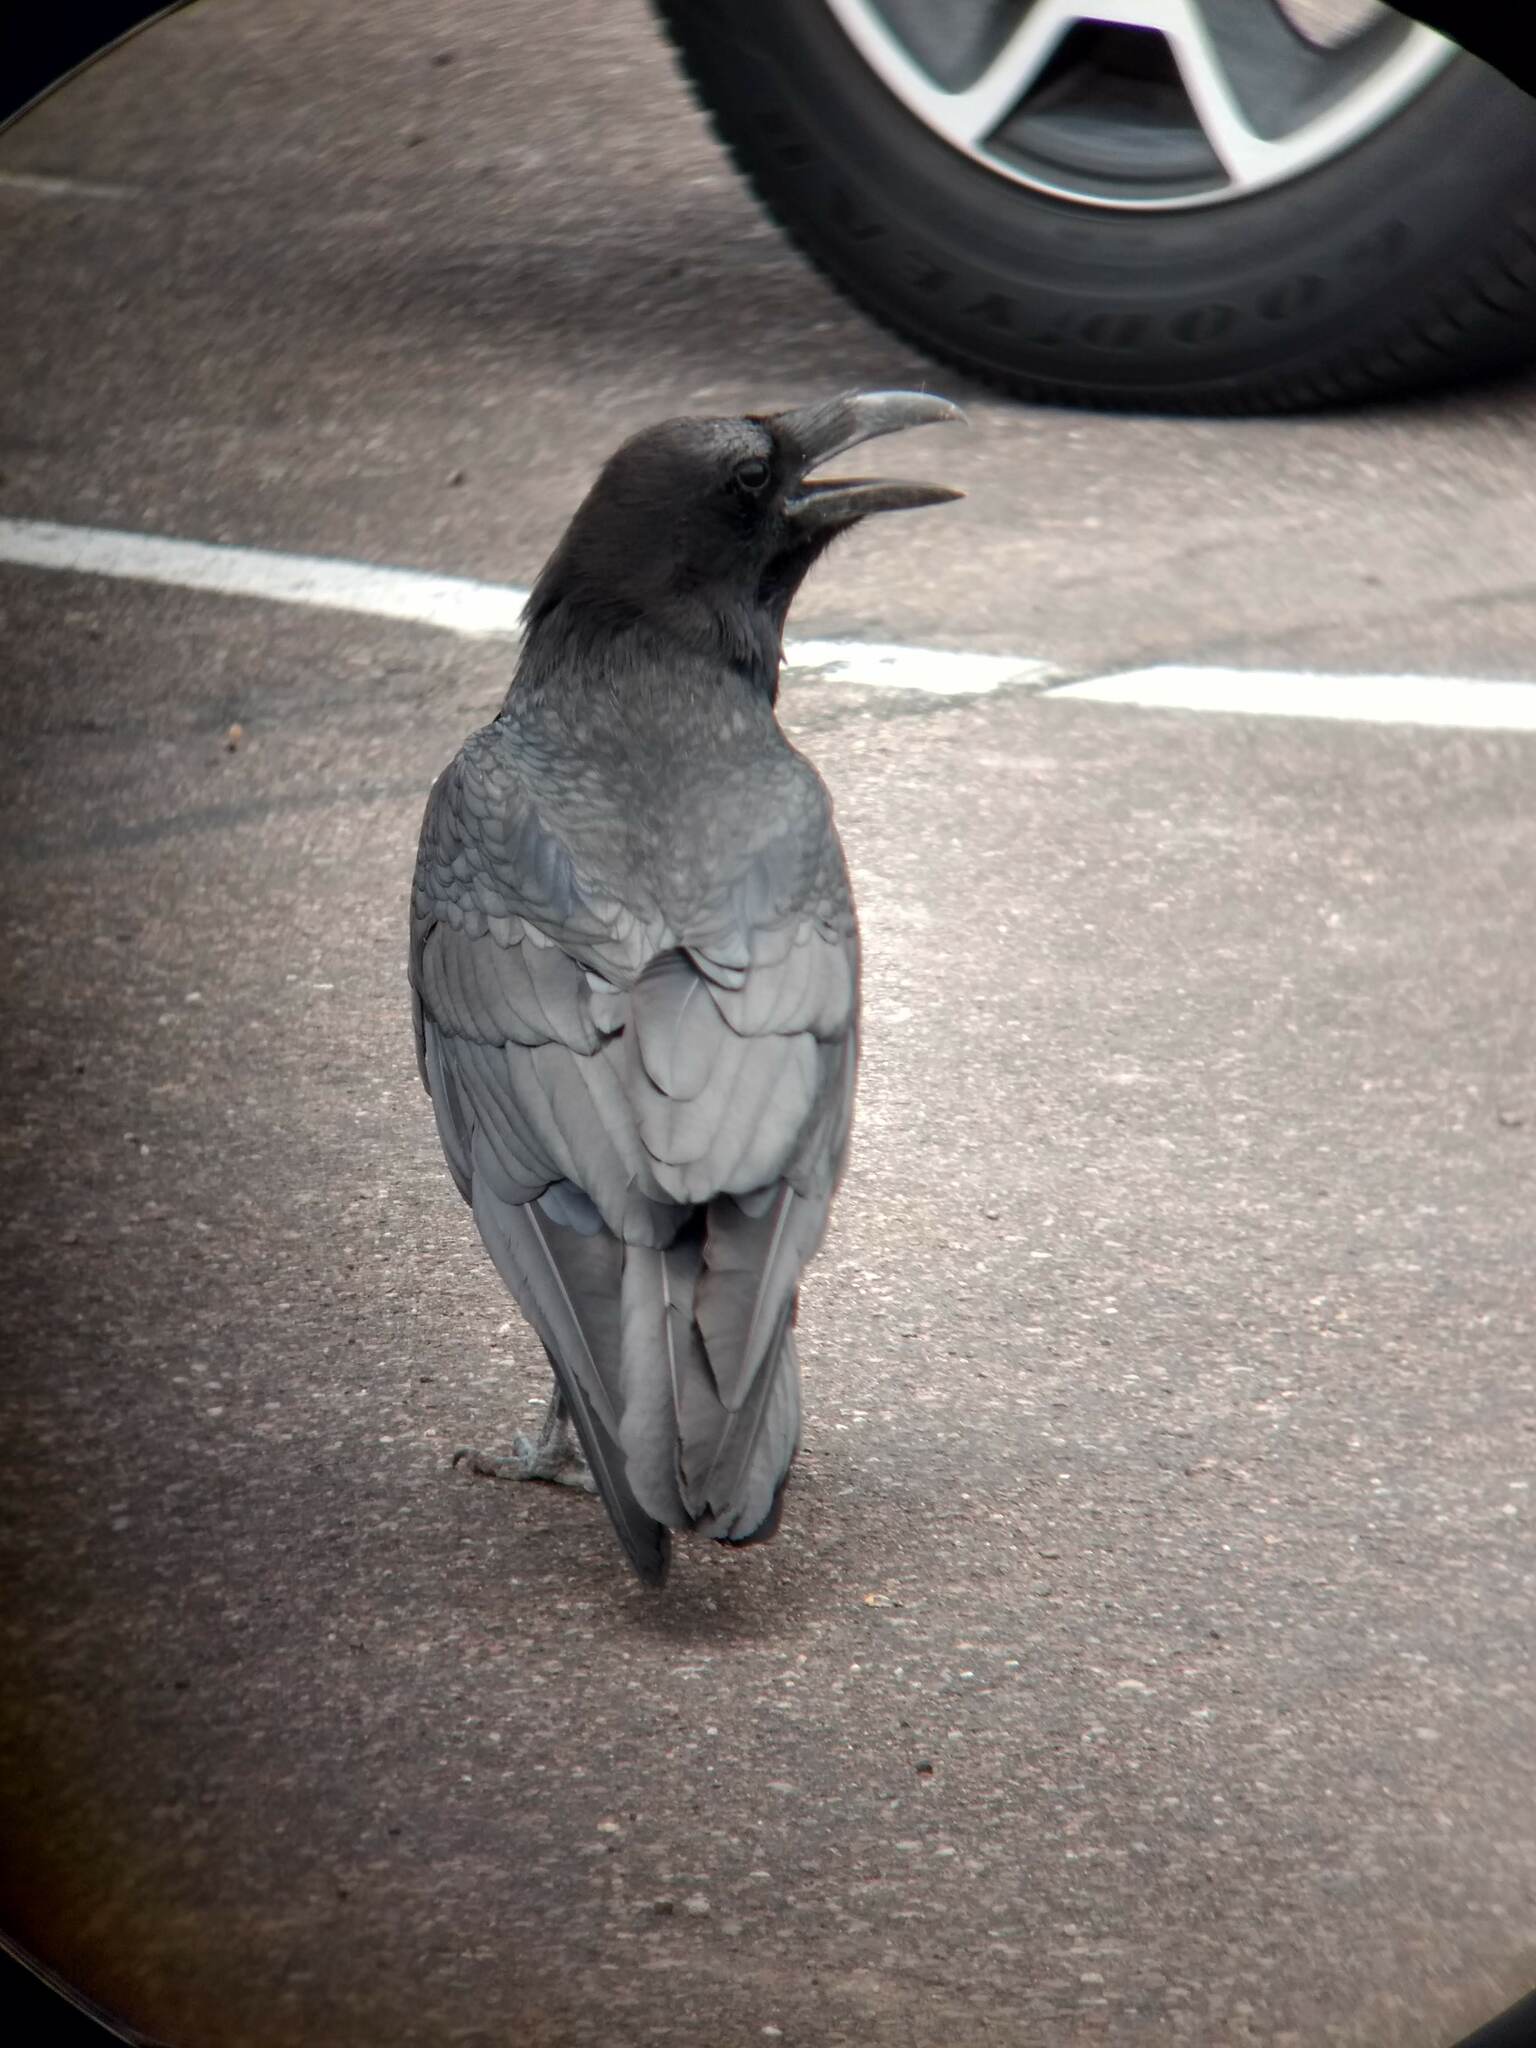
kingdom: Animalia
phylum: Chordata
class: Aves
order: Passeriformes
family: Corvidae
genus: Corvus
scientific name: Corvus corax
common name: Common raven
